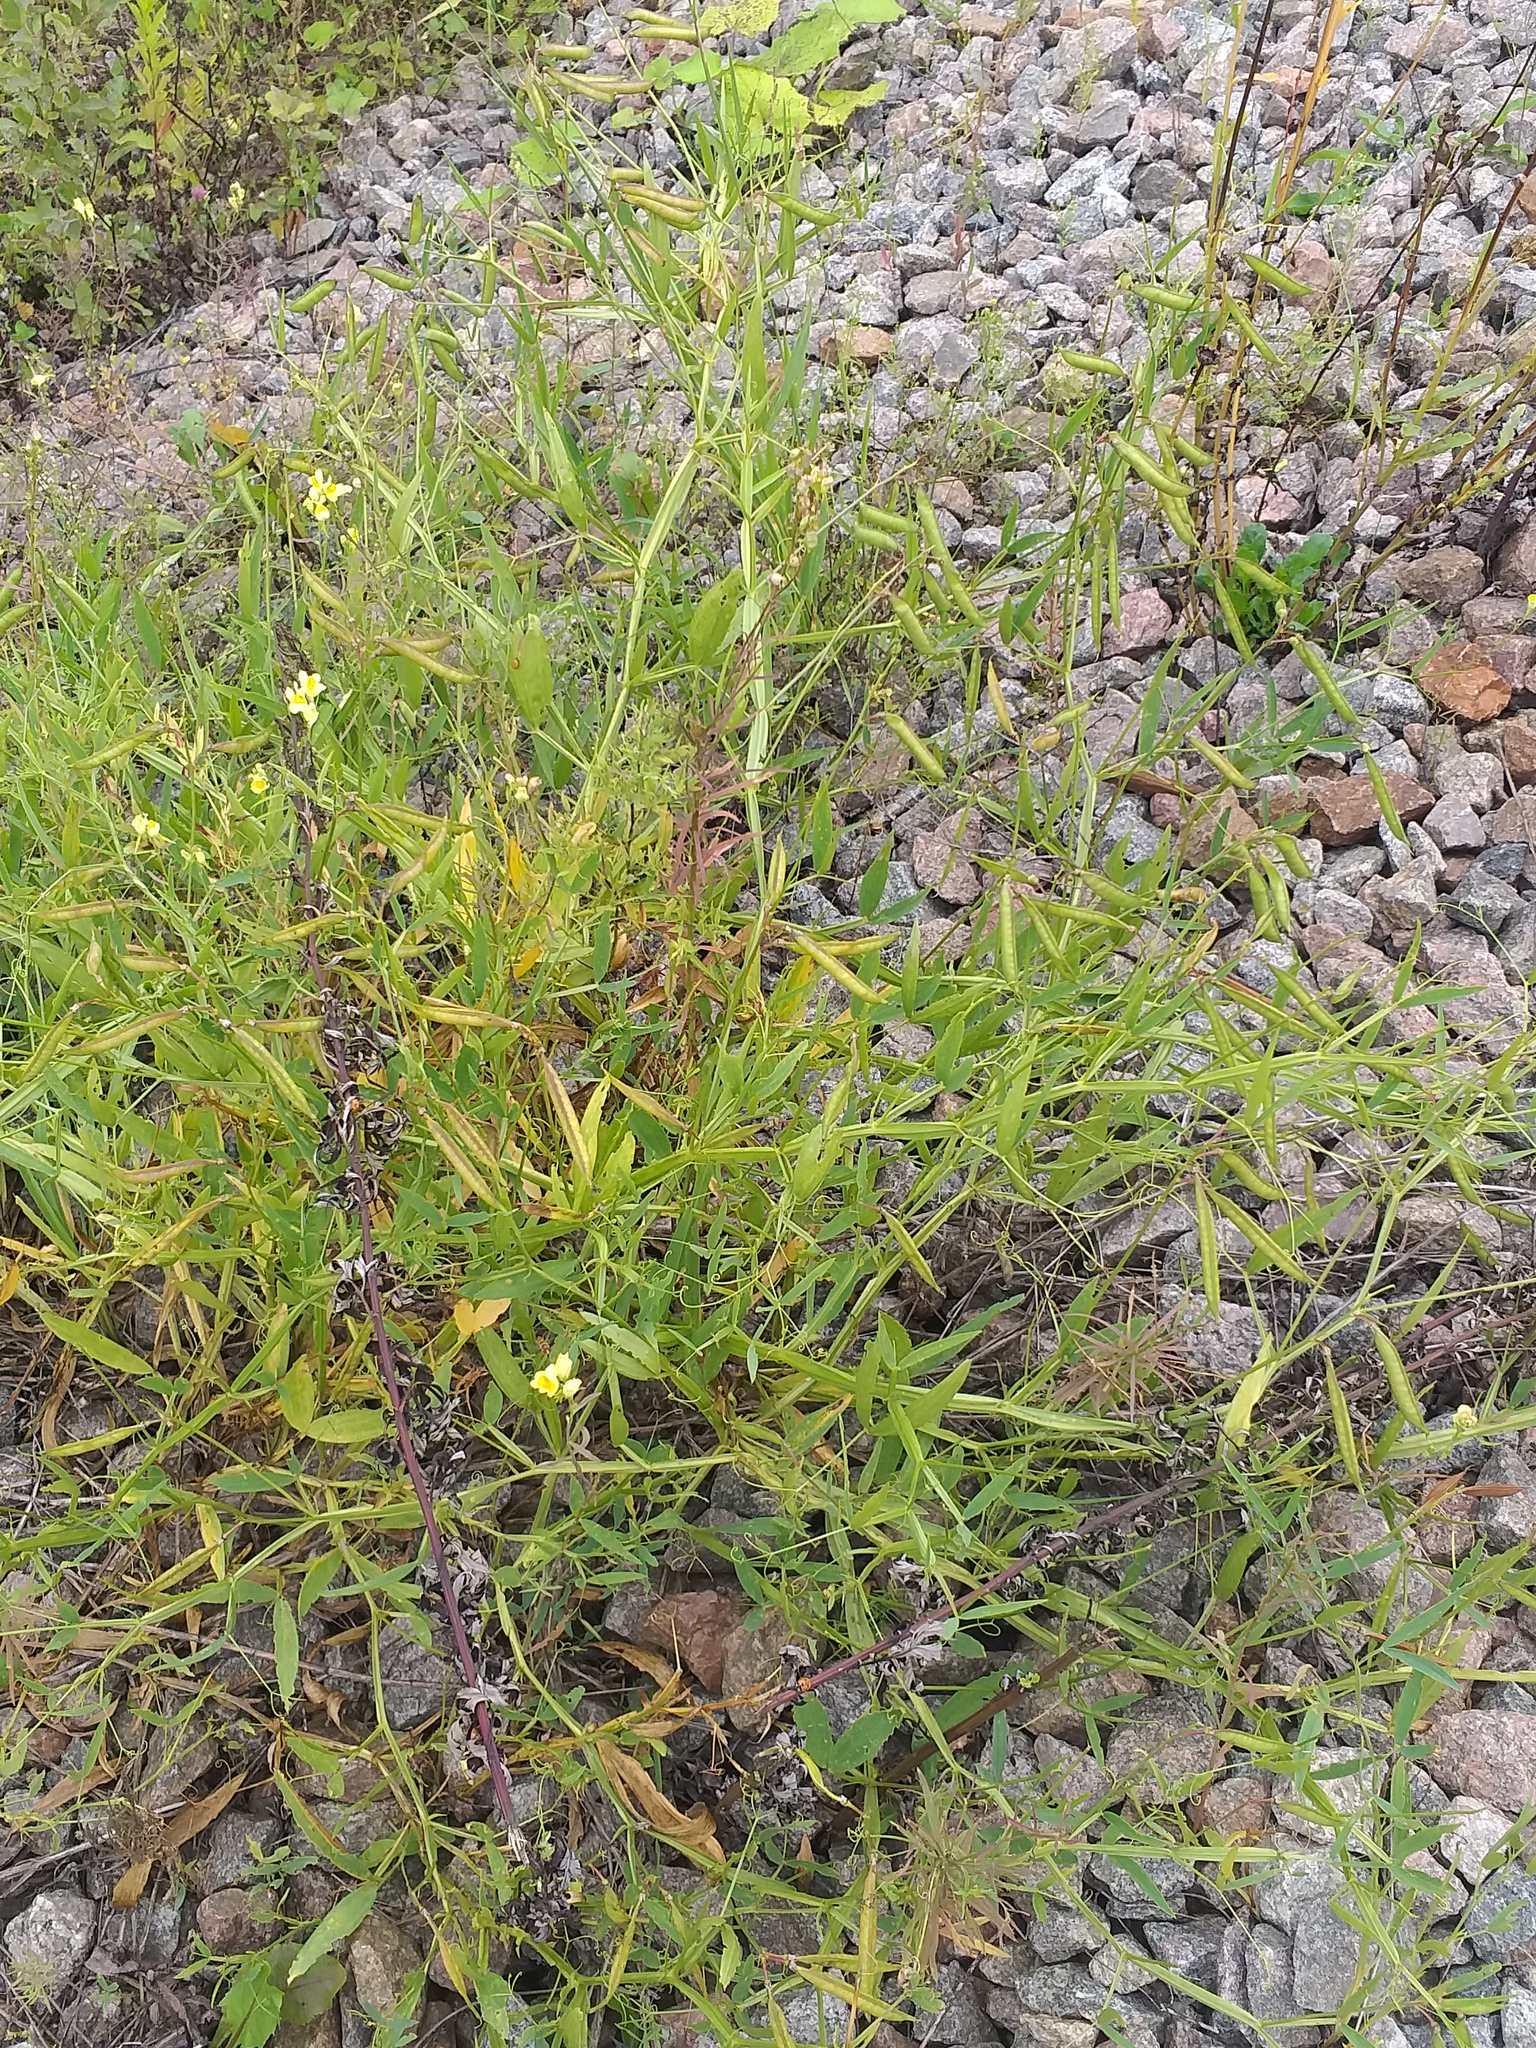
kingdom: Plantae
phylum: Tracheophyta
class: Magnoliopsida
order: Fabales
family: Fabaceae
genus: Lathyrus
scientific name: Lathyrus sylvestris
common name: Flat pea
